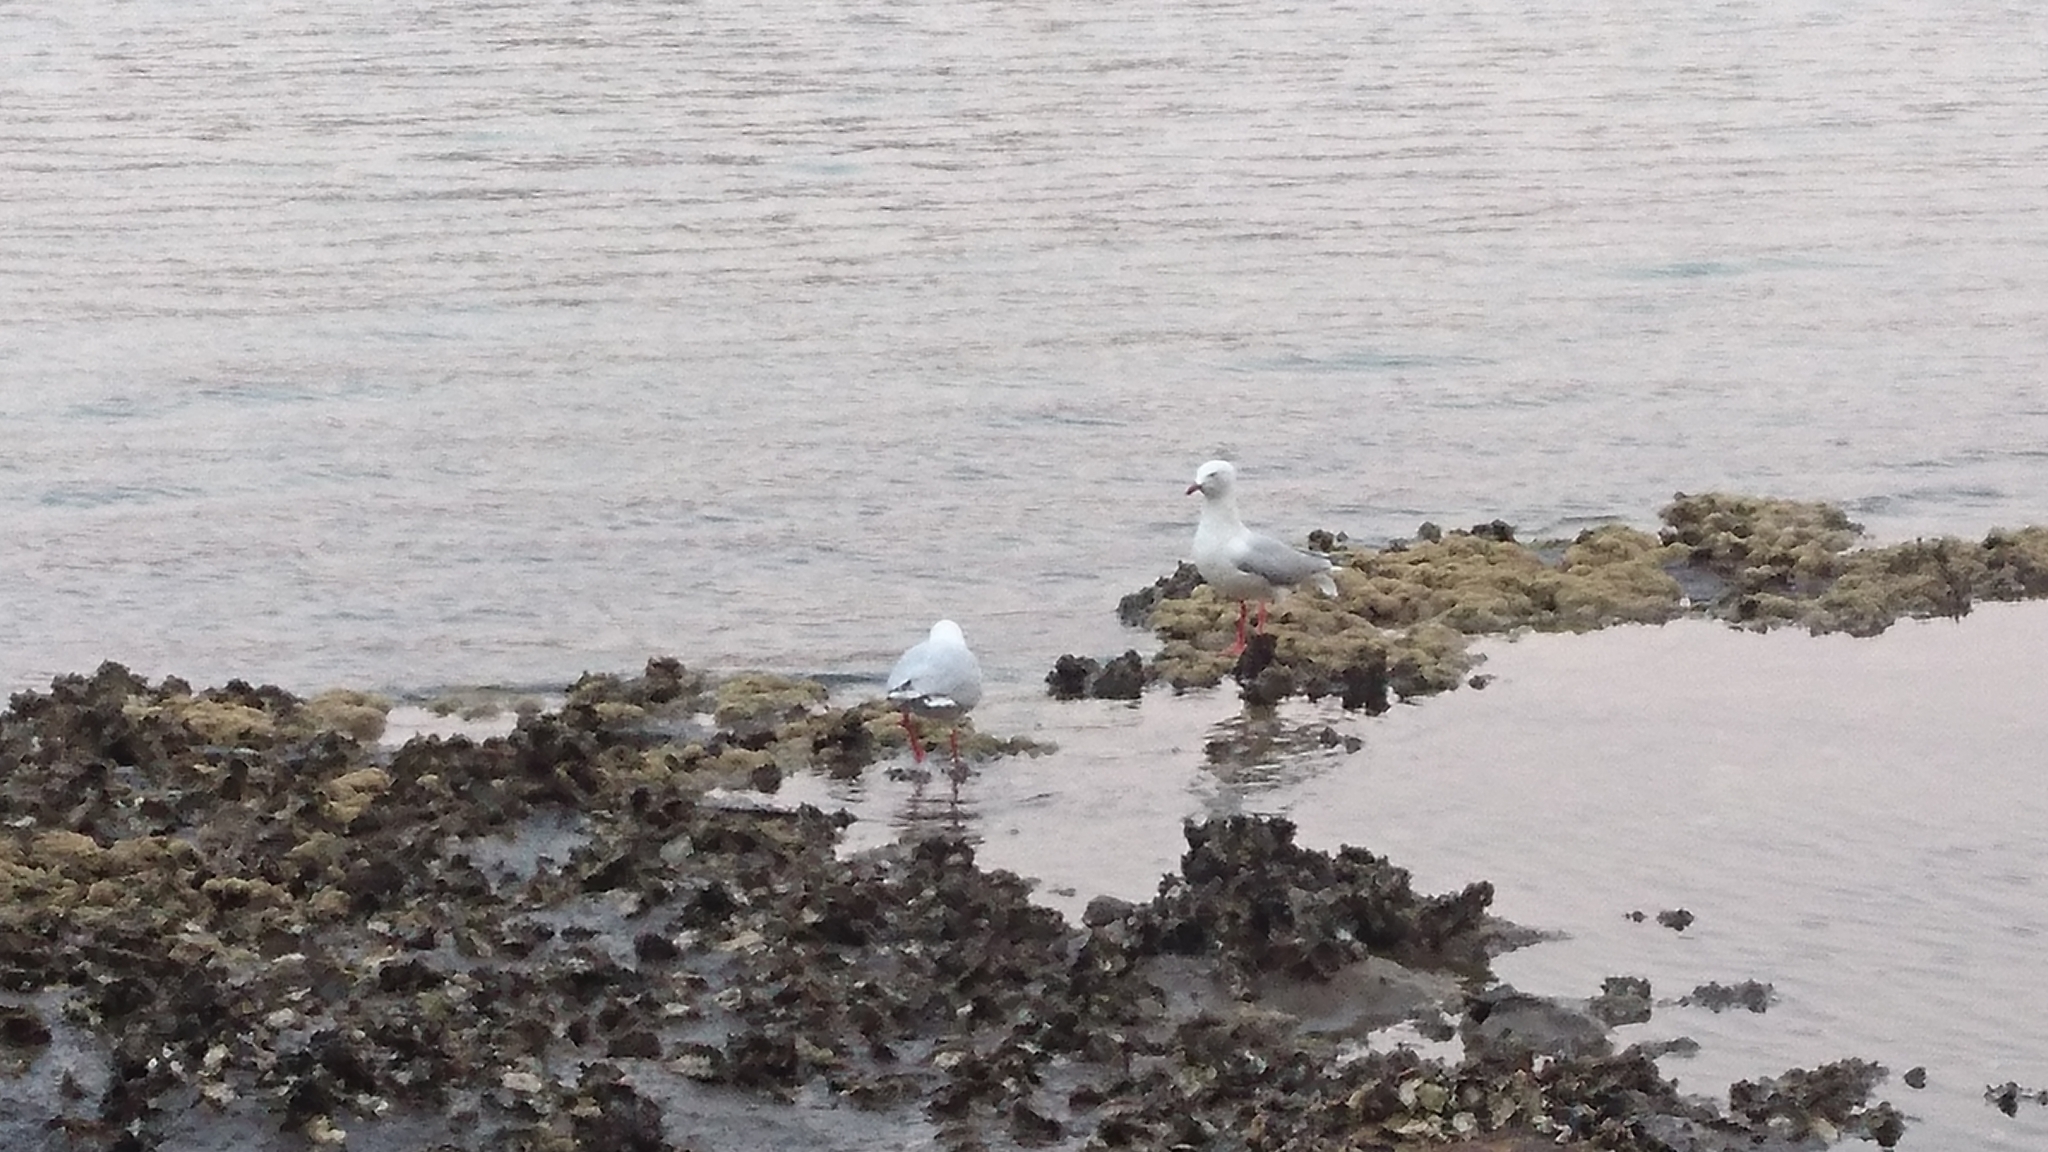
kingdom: Animalia
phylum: Chordata
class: Aves
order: Charadriiformes
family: Laridae
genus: Chroicocephalus
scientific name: Chroicocephalus novaehollandiae
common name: Silver gull
